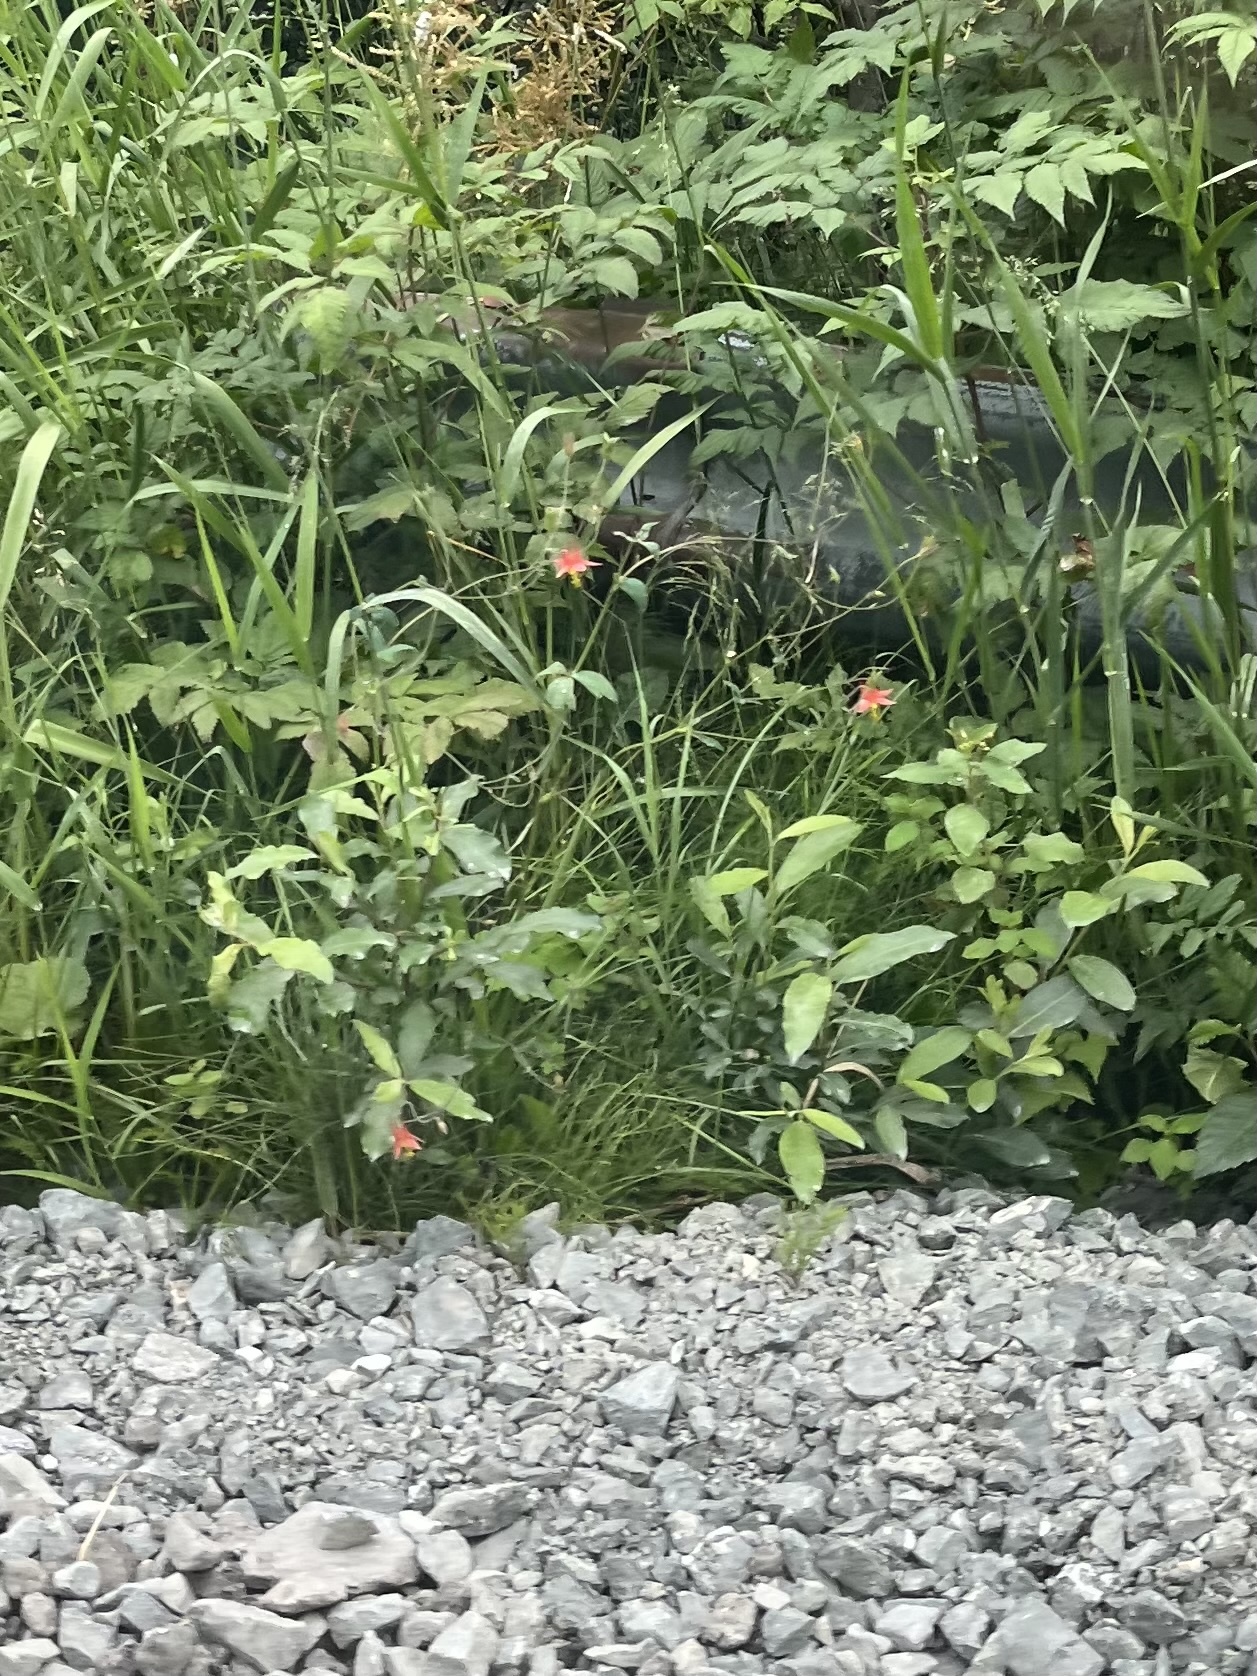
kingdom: Plantae
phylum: Tracheophyta
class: Magnoliopsida
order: Ranunculales
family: Ranunculaceae
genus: Aquilegia
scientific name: Aquilegia formosa
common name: Sitka columbine
